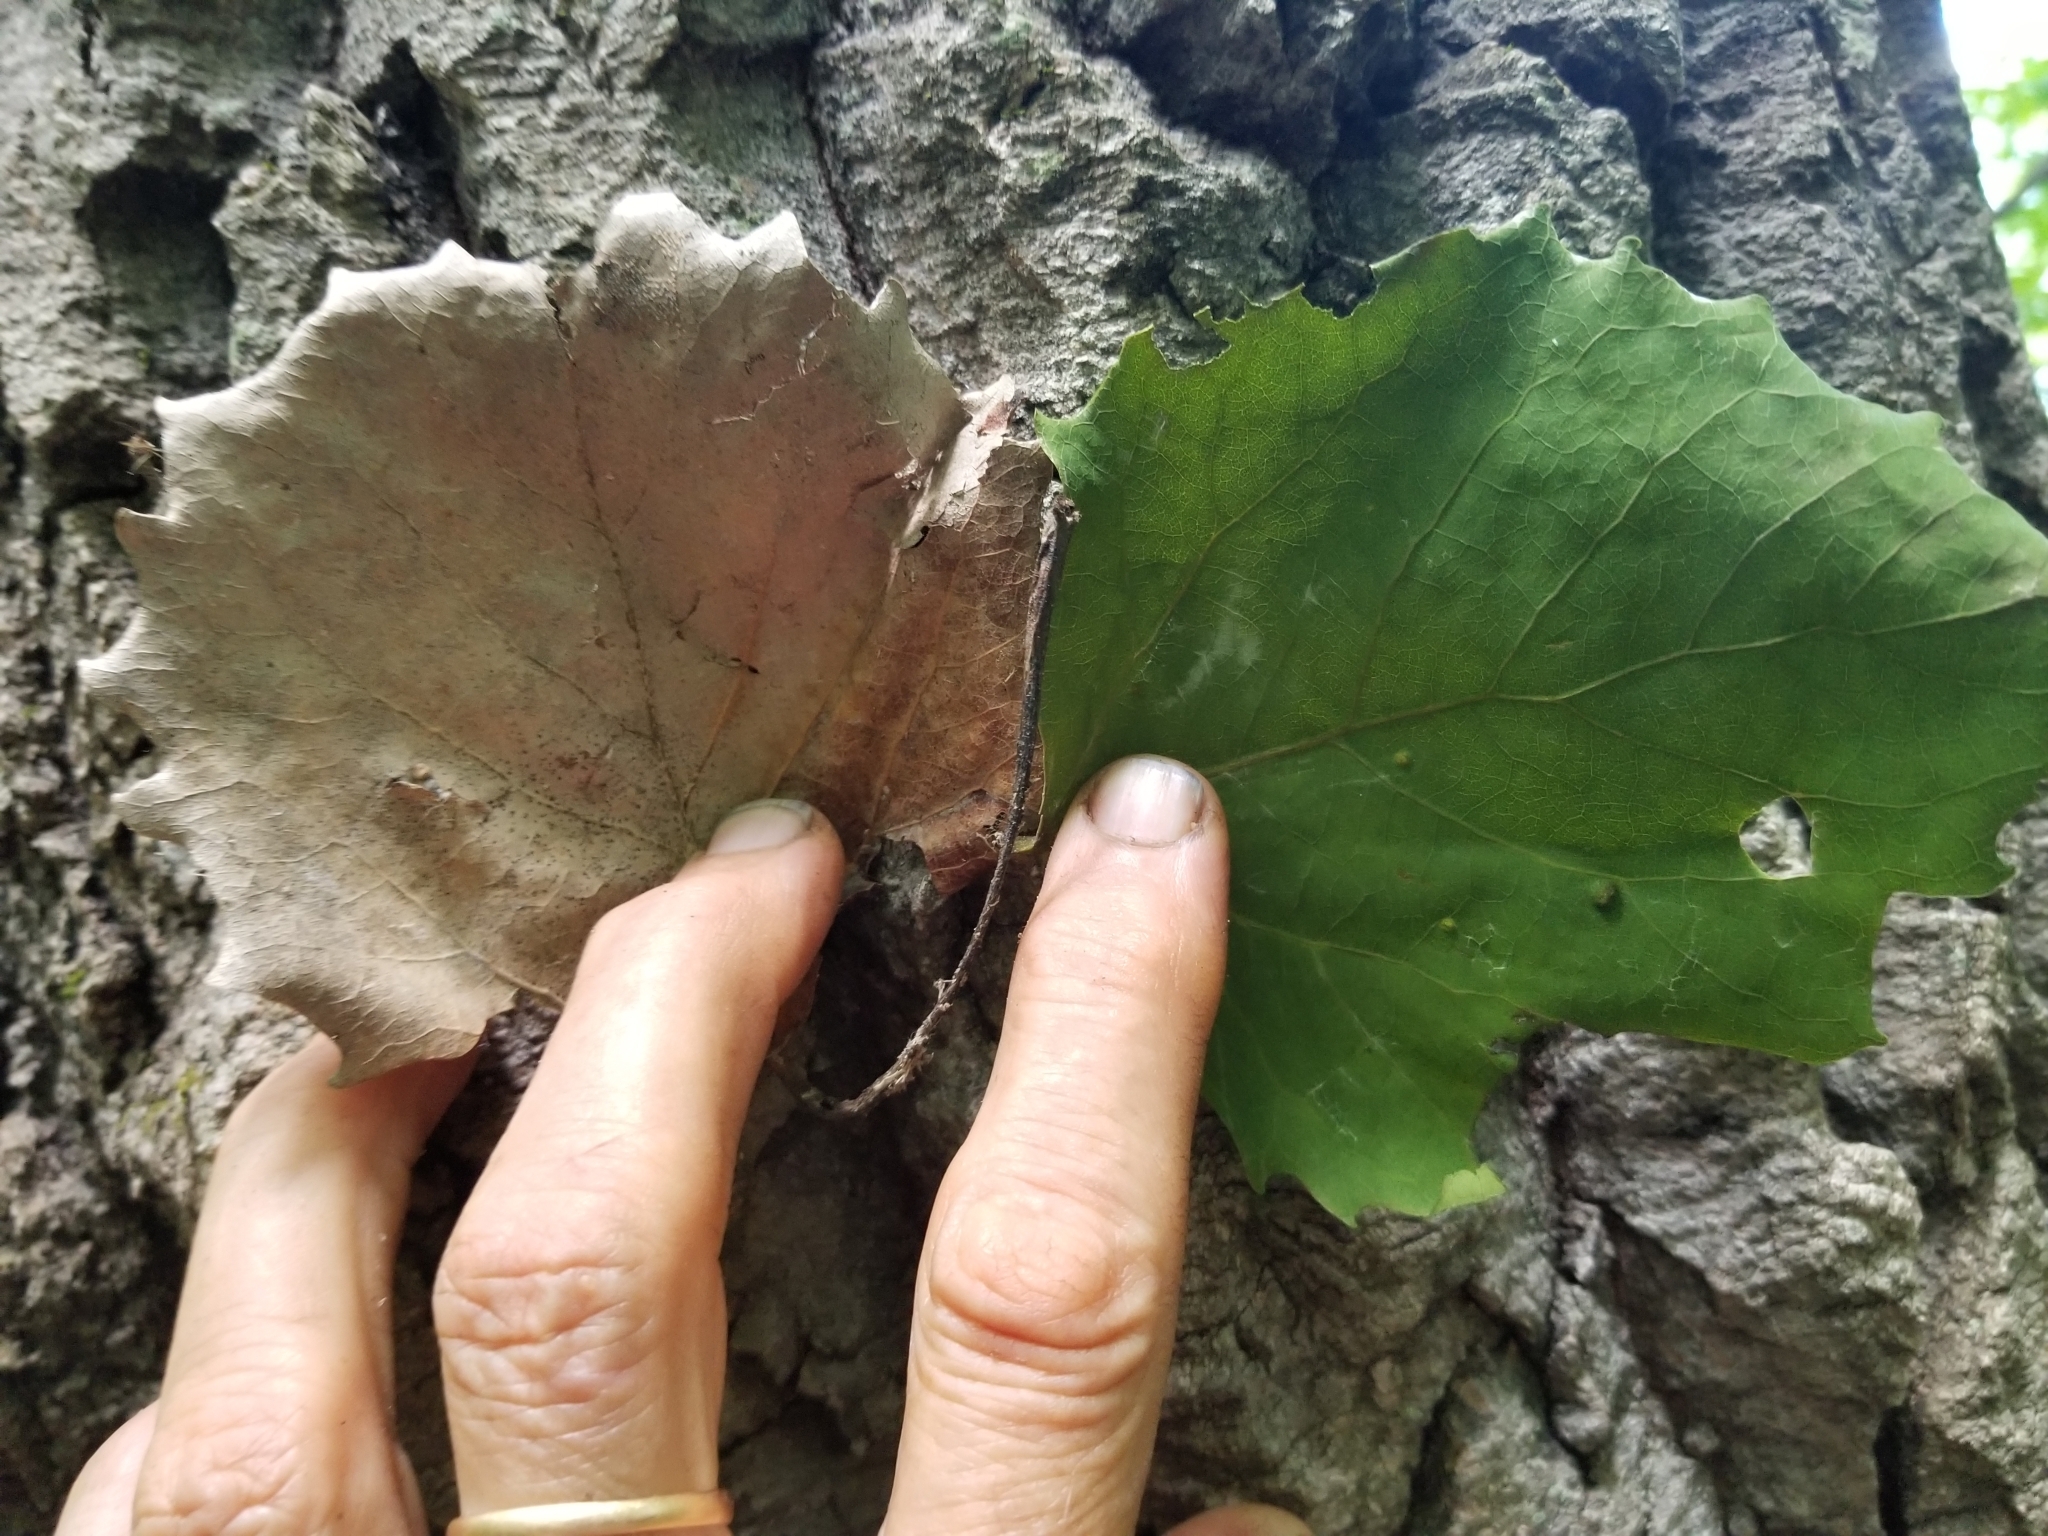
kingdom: Plantae
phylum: Tracheophyta
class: Magnoliopsida
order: Malpighiales
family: Salicaceae
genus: Populus
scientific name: Populus grandidentata
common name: Bigtooth aspen
